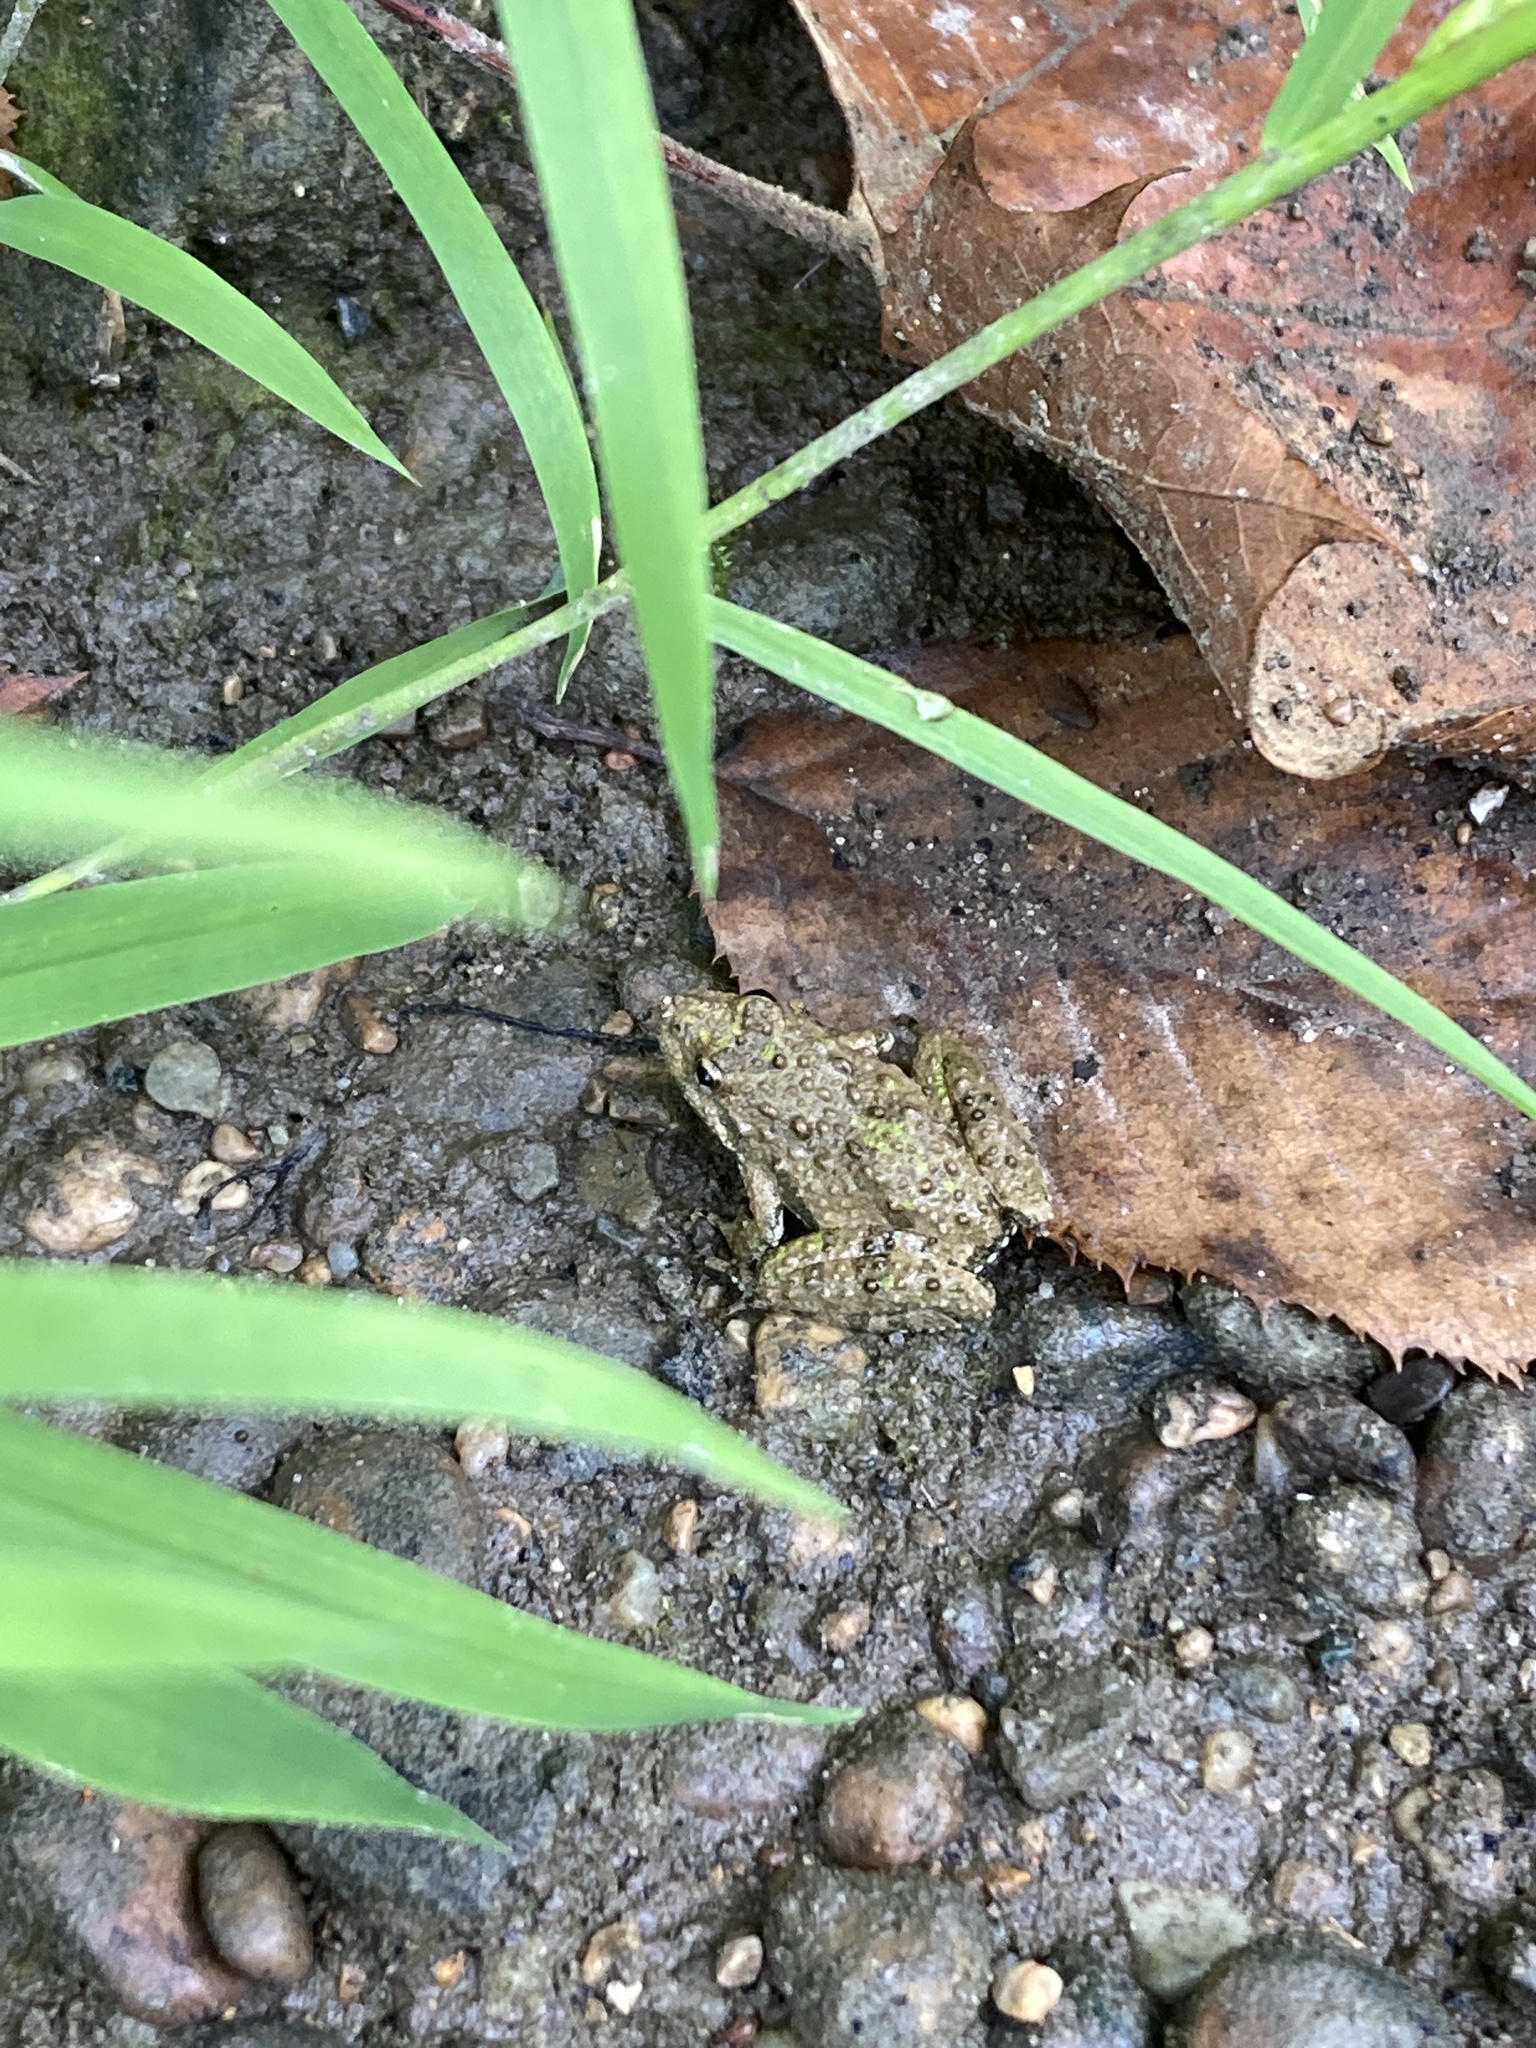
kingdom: Animalia
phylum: Chordata
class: Amphibia
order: Anura
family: Hylidae
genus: Acris
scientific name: Acris blanchardi
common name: Blanchard's cricket frog
